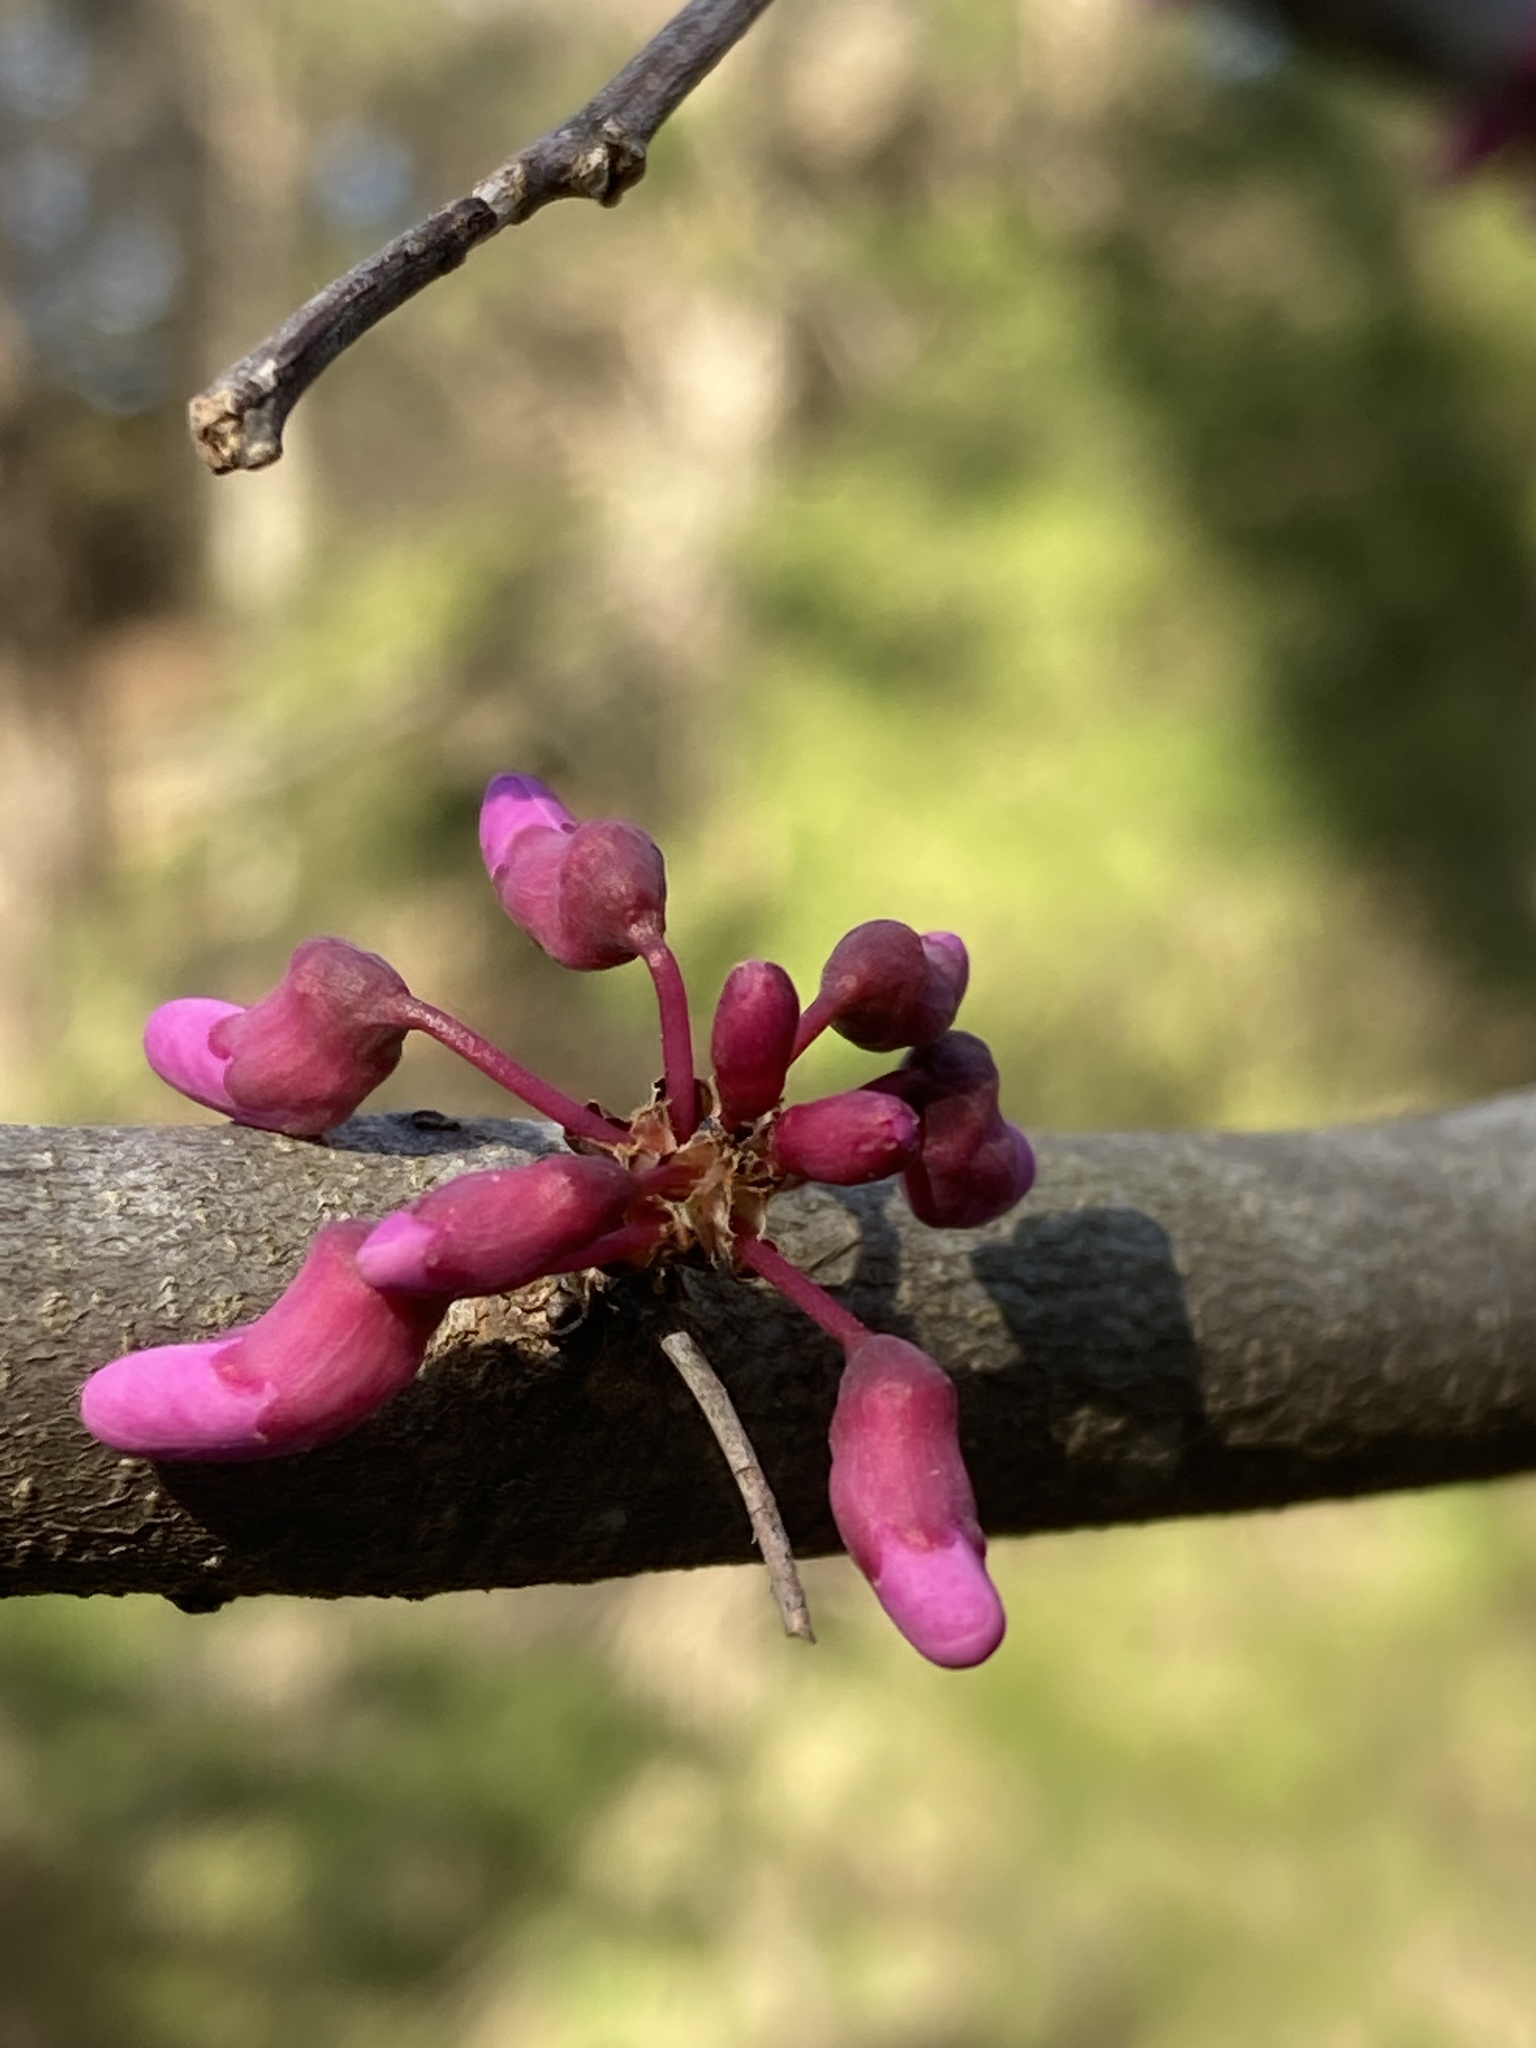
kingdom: Plantae
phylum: Tracheophyta
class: Magnoliopsida
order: Fabales
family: Fabaceae
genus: Cercis
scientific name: Cercis canadensis
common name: Eastern redbud
